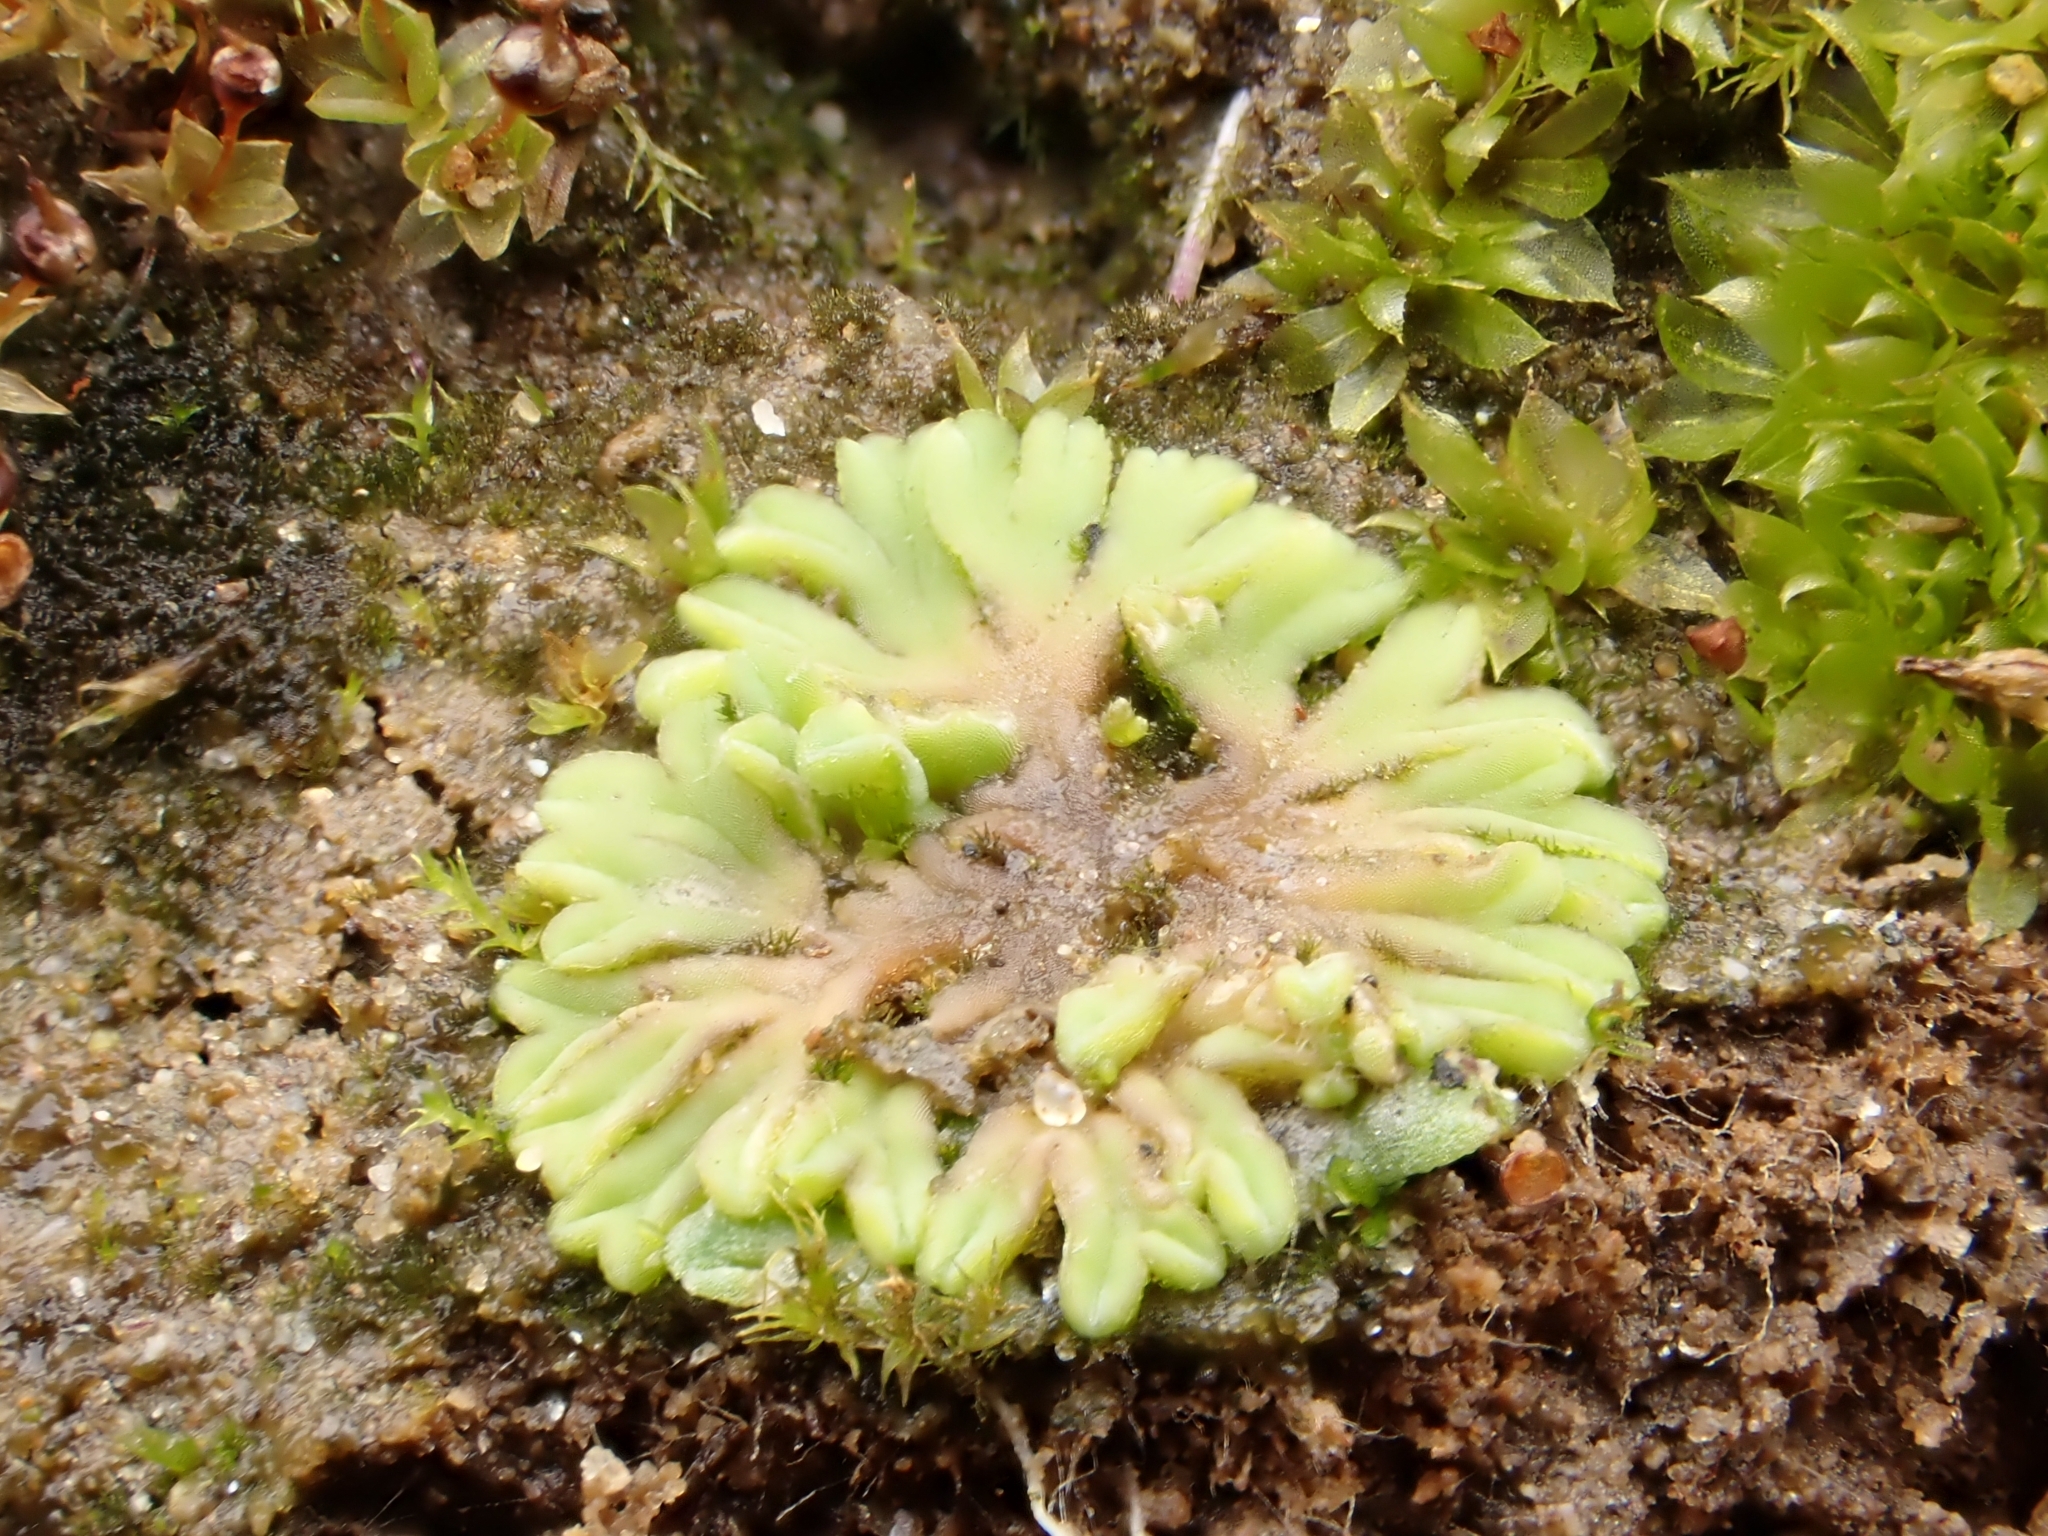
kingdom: Plantae
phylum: Marchantiophyta
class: Marchantiopsida
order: Marchantiales
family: Ricciaceae
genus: Riccia
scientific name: Riccia sorocarpa
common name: Common crystalwort
